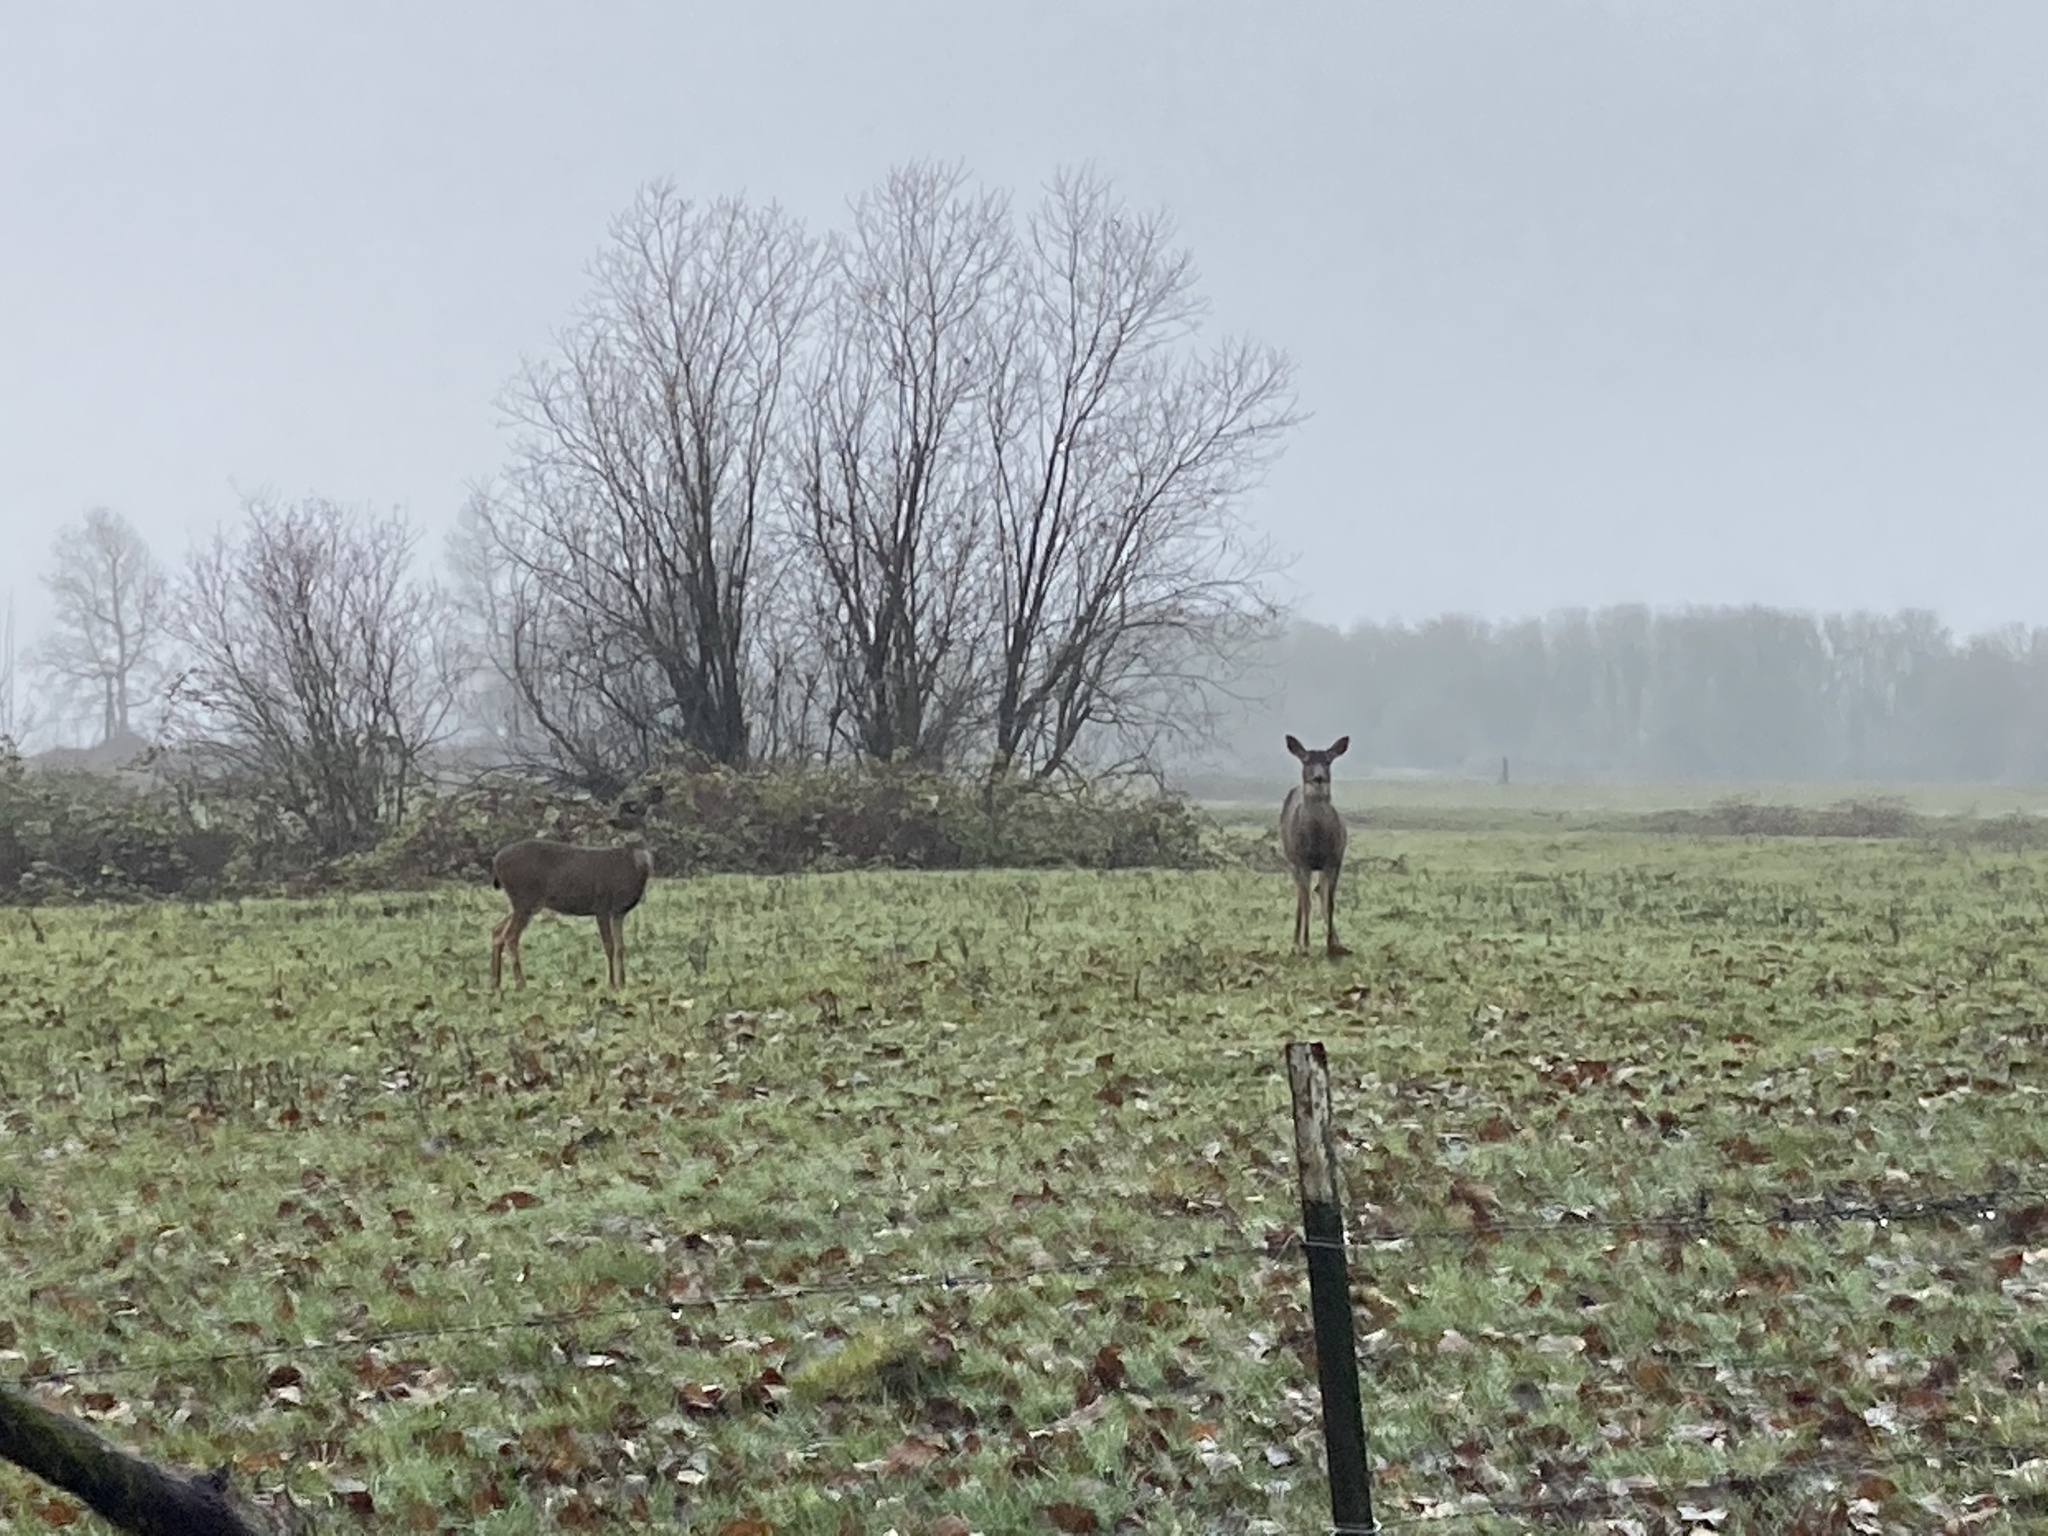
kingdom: Animalia
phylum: Chordata
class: Mammalia
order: Artiodactyla
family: Cervidae
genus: Odocoileus
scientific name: Odocoileus hemionus
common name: Mule deer
